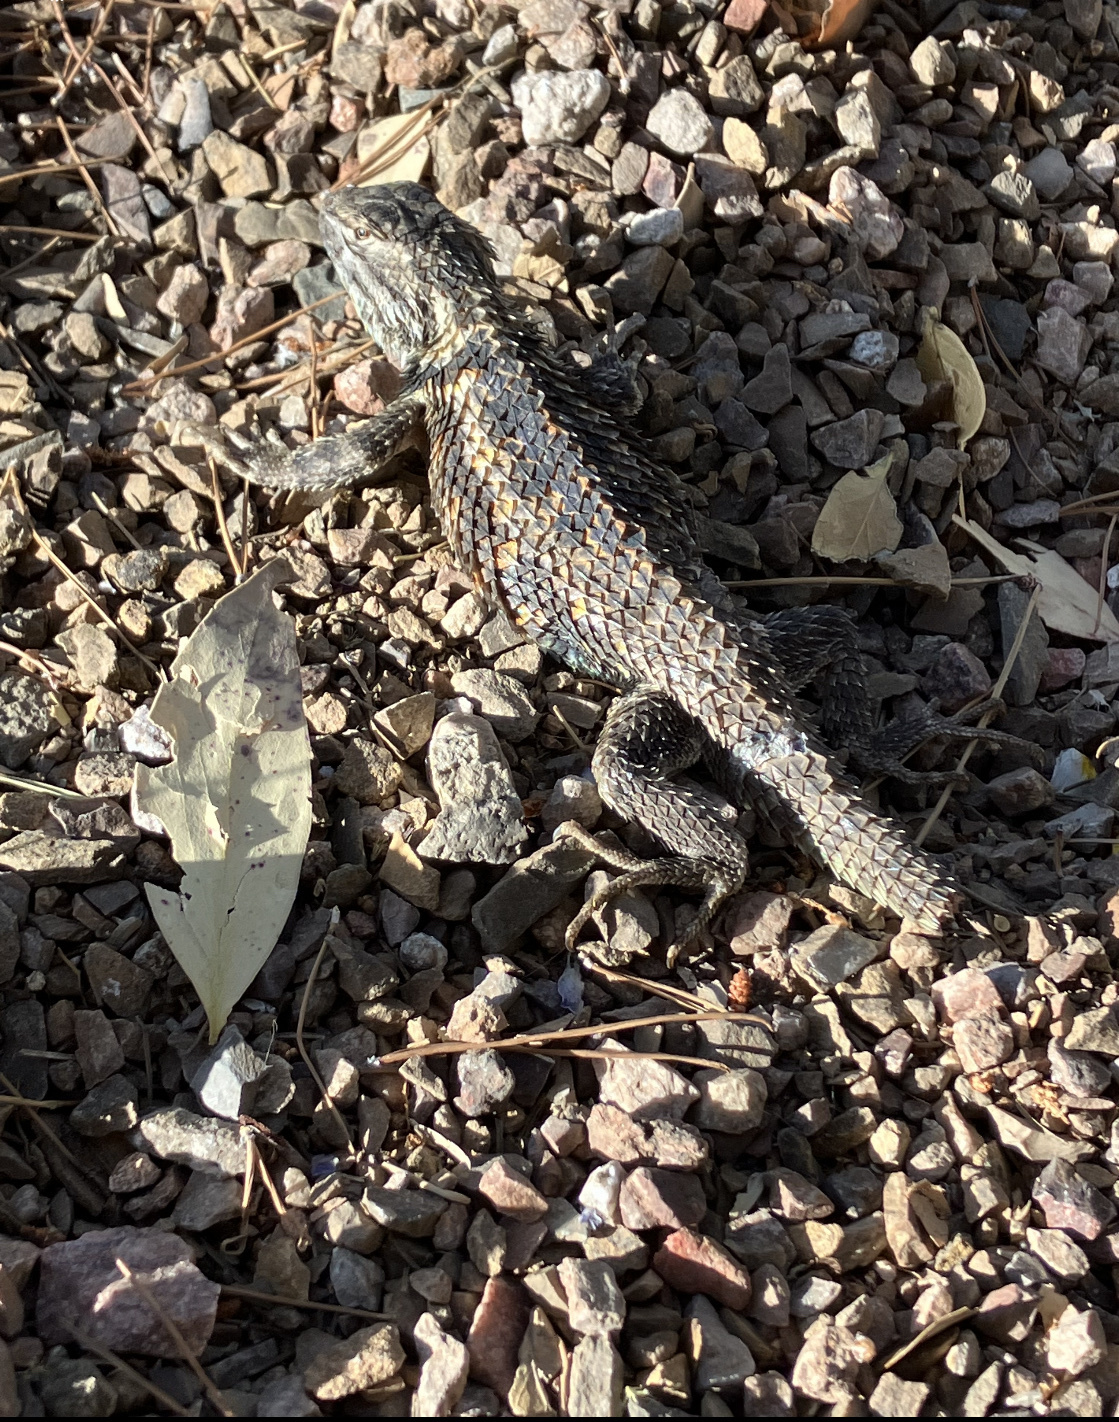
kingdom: Animalia
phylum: Chordata
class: Squamata
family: Phrynosomatidae
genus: Sceloporus
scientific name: Sceloporus magister
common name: Desert spiny lizard
